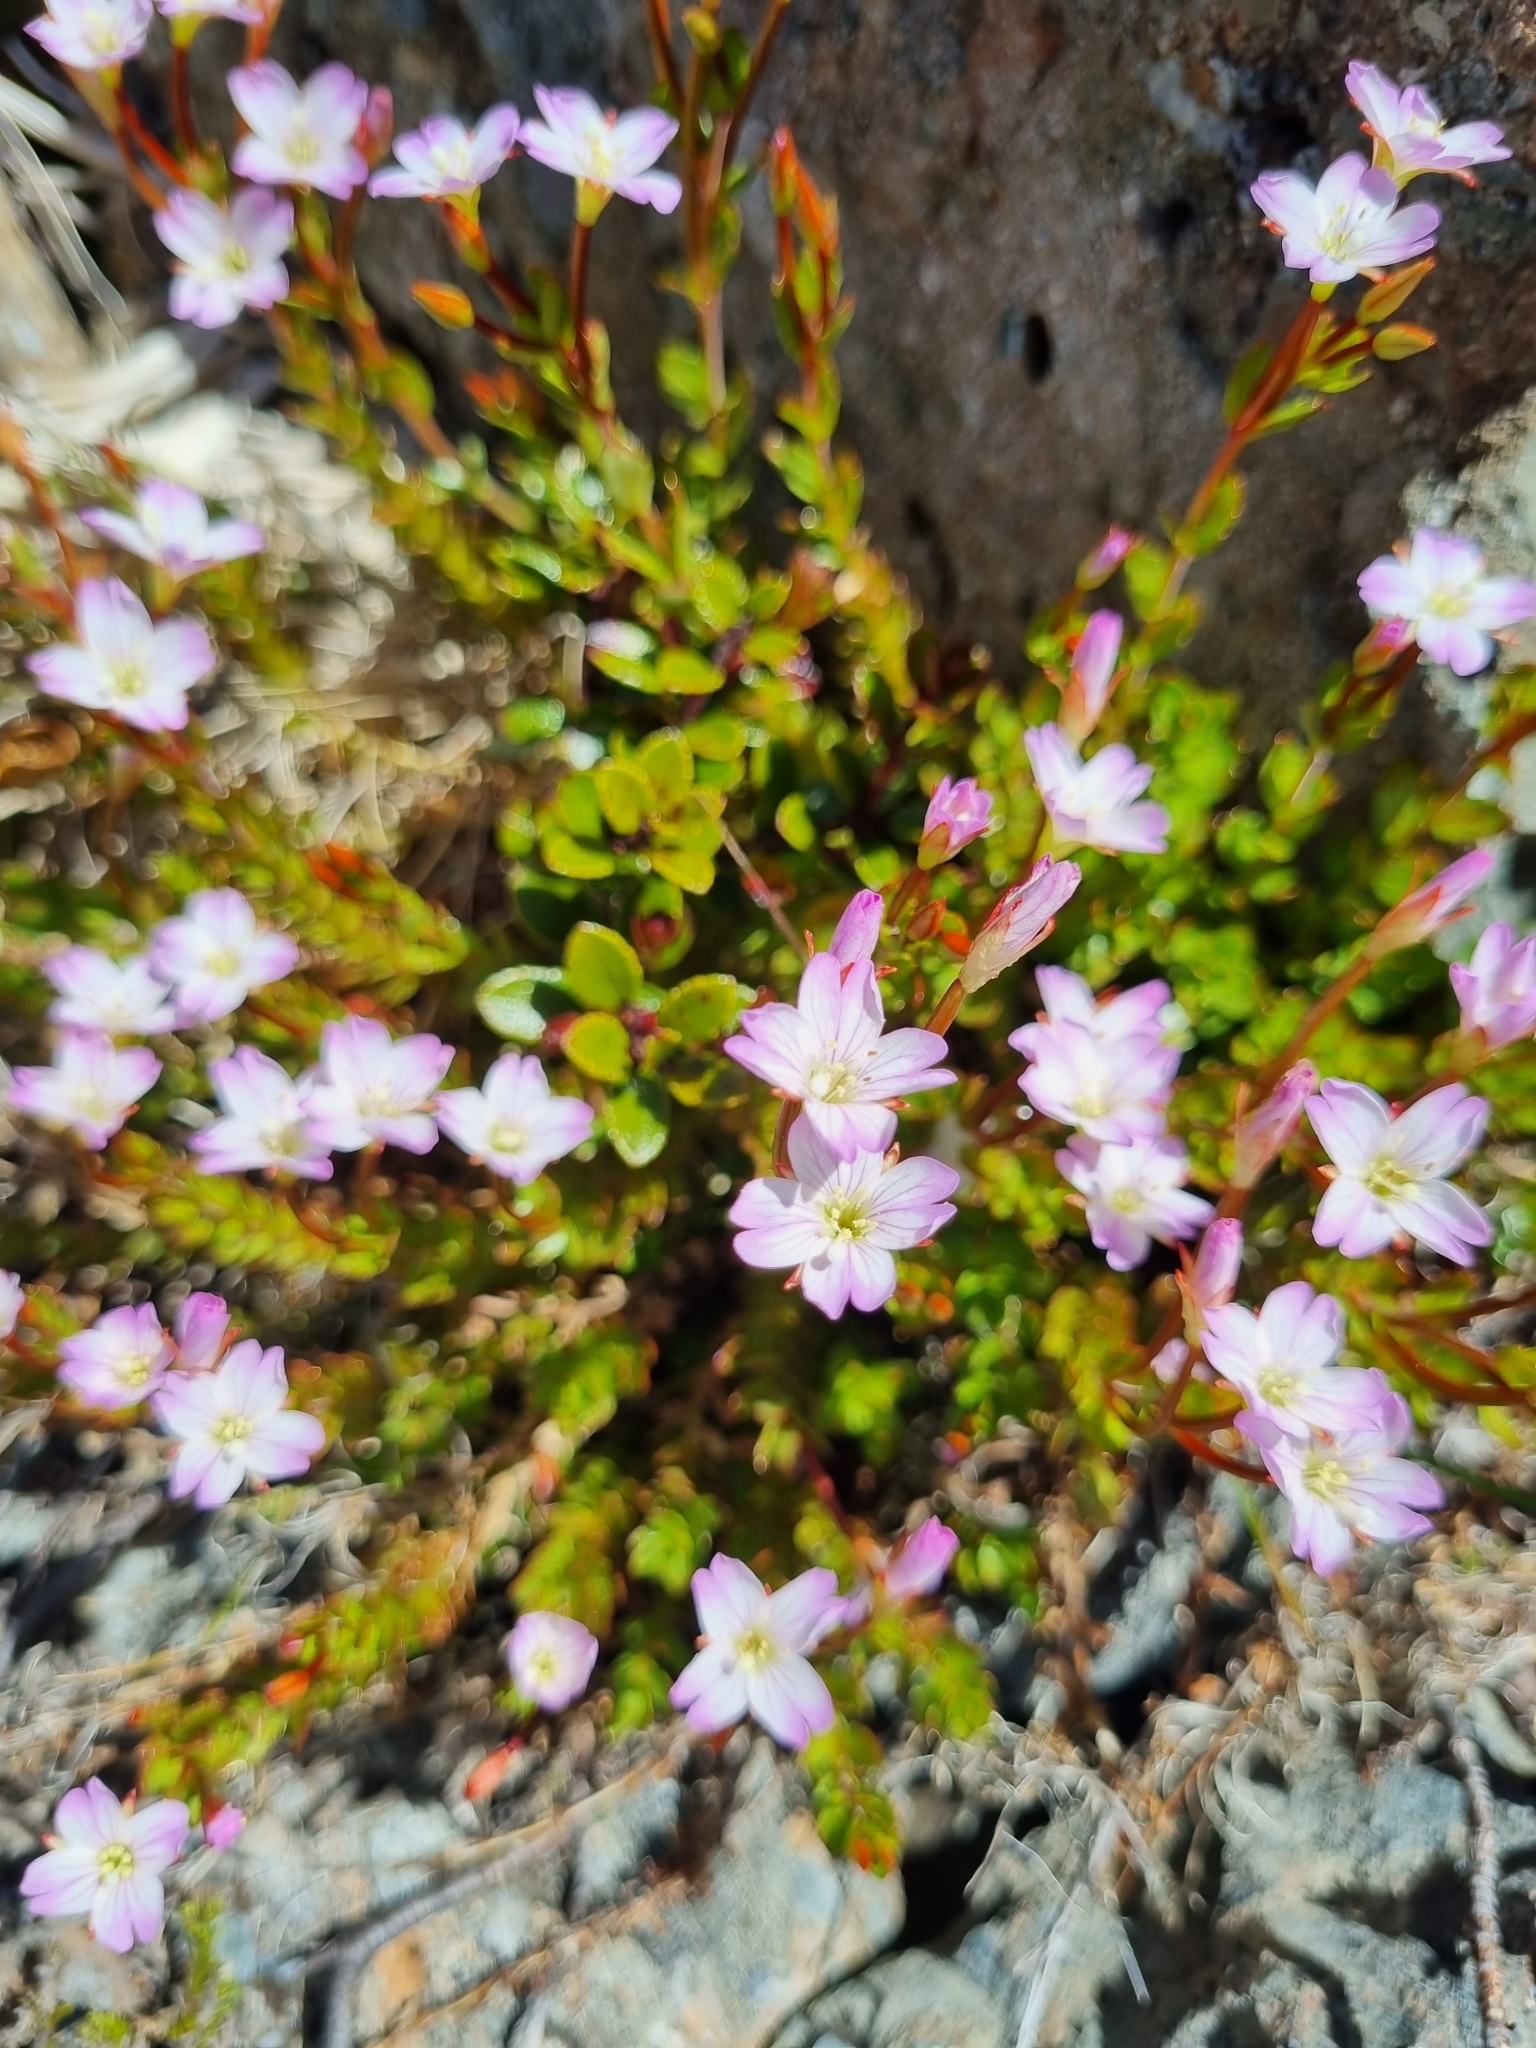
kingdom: Plantae
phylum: Tracheophyta
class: Magnoliopsida
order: Myrtales
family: Onagraceae
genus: Epilobium
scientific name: Epilobium glabellum
